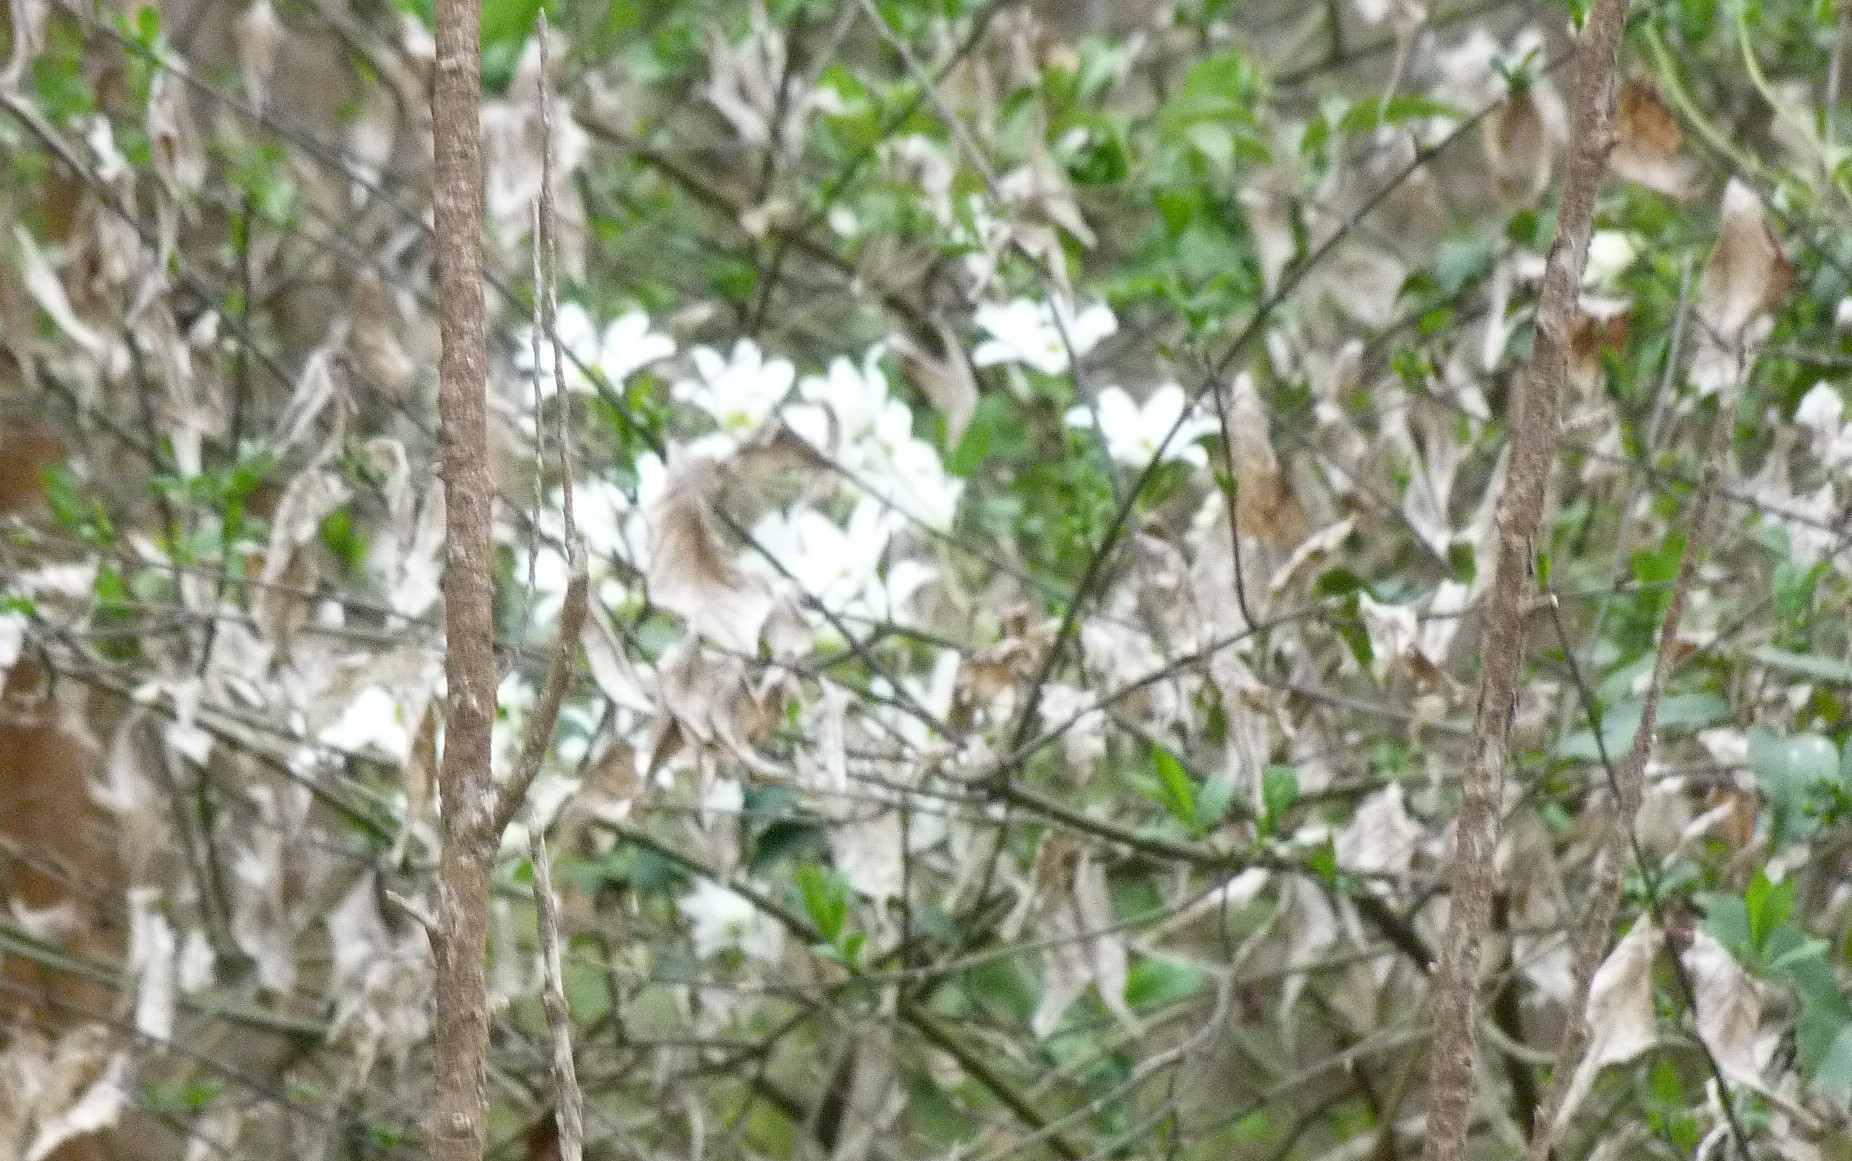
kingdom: Plantae
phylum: Tracheophyta
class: Magnoliopsida
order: Ranunculales
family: Ranunculaceae
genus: Clematis
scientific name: Clematis paniculata
